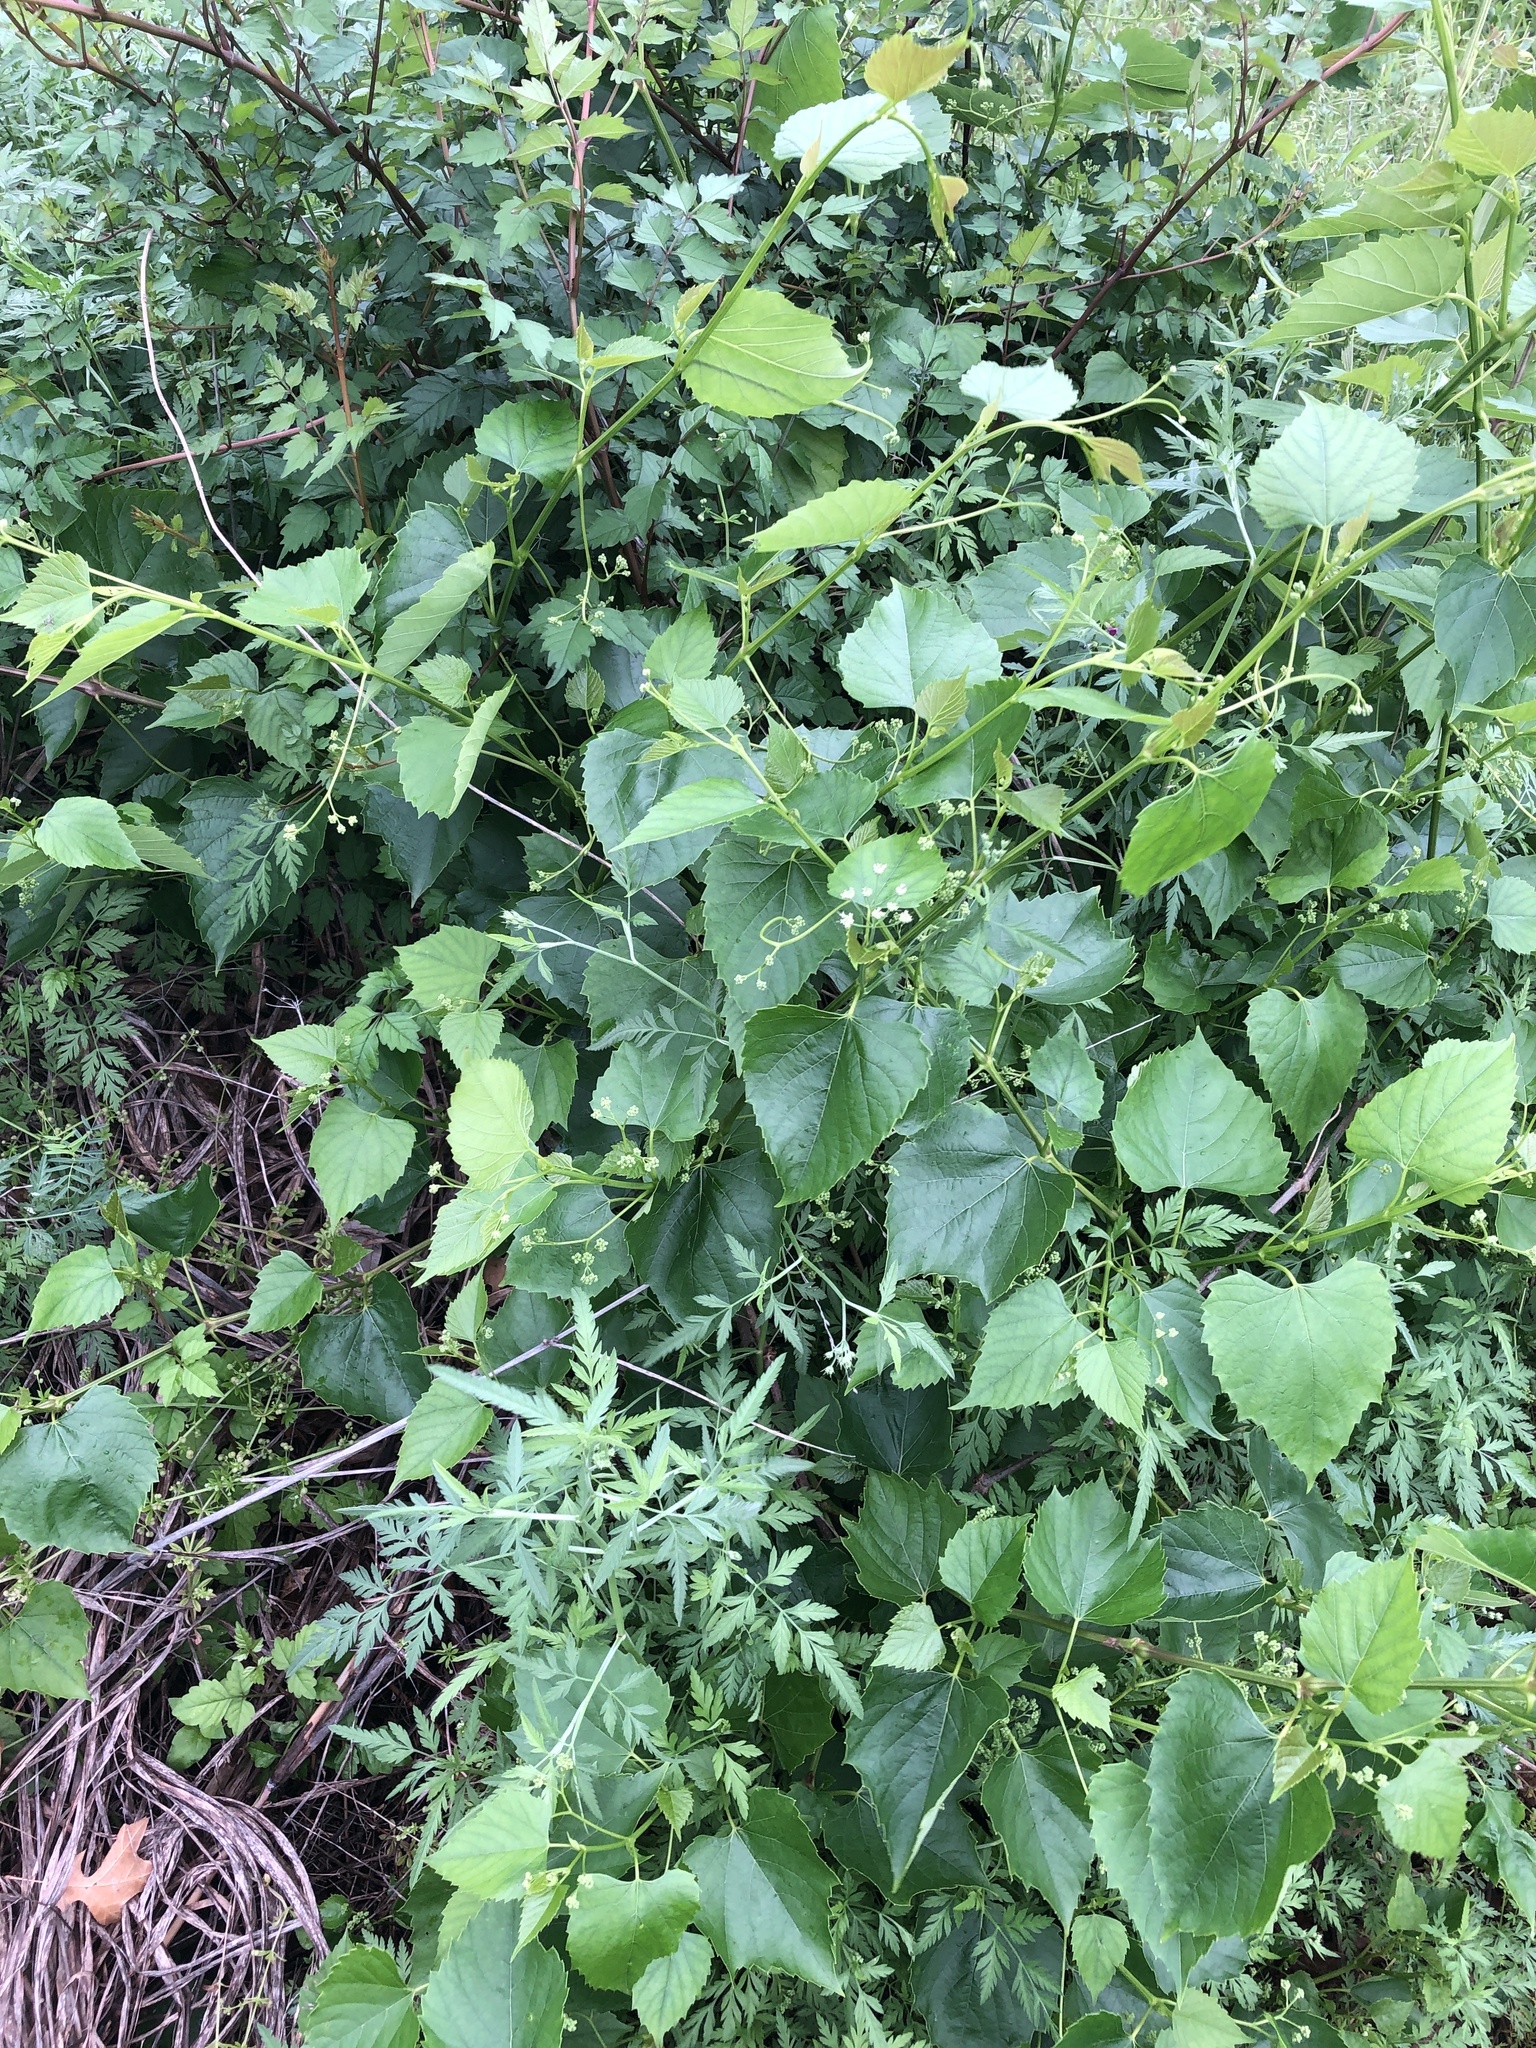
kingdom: Plantae
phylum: Tracheophyta
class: Magnoliopsida
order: Vitales
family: Vitaceae
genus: Ampelopsis
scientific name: Ampelopsis cordata
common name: Heart-leaf ampelopsis
